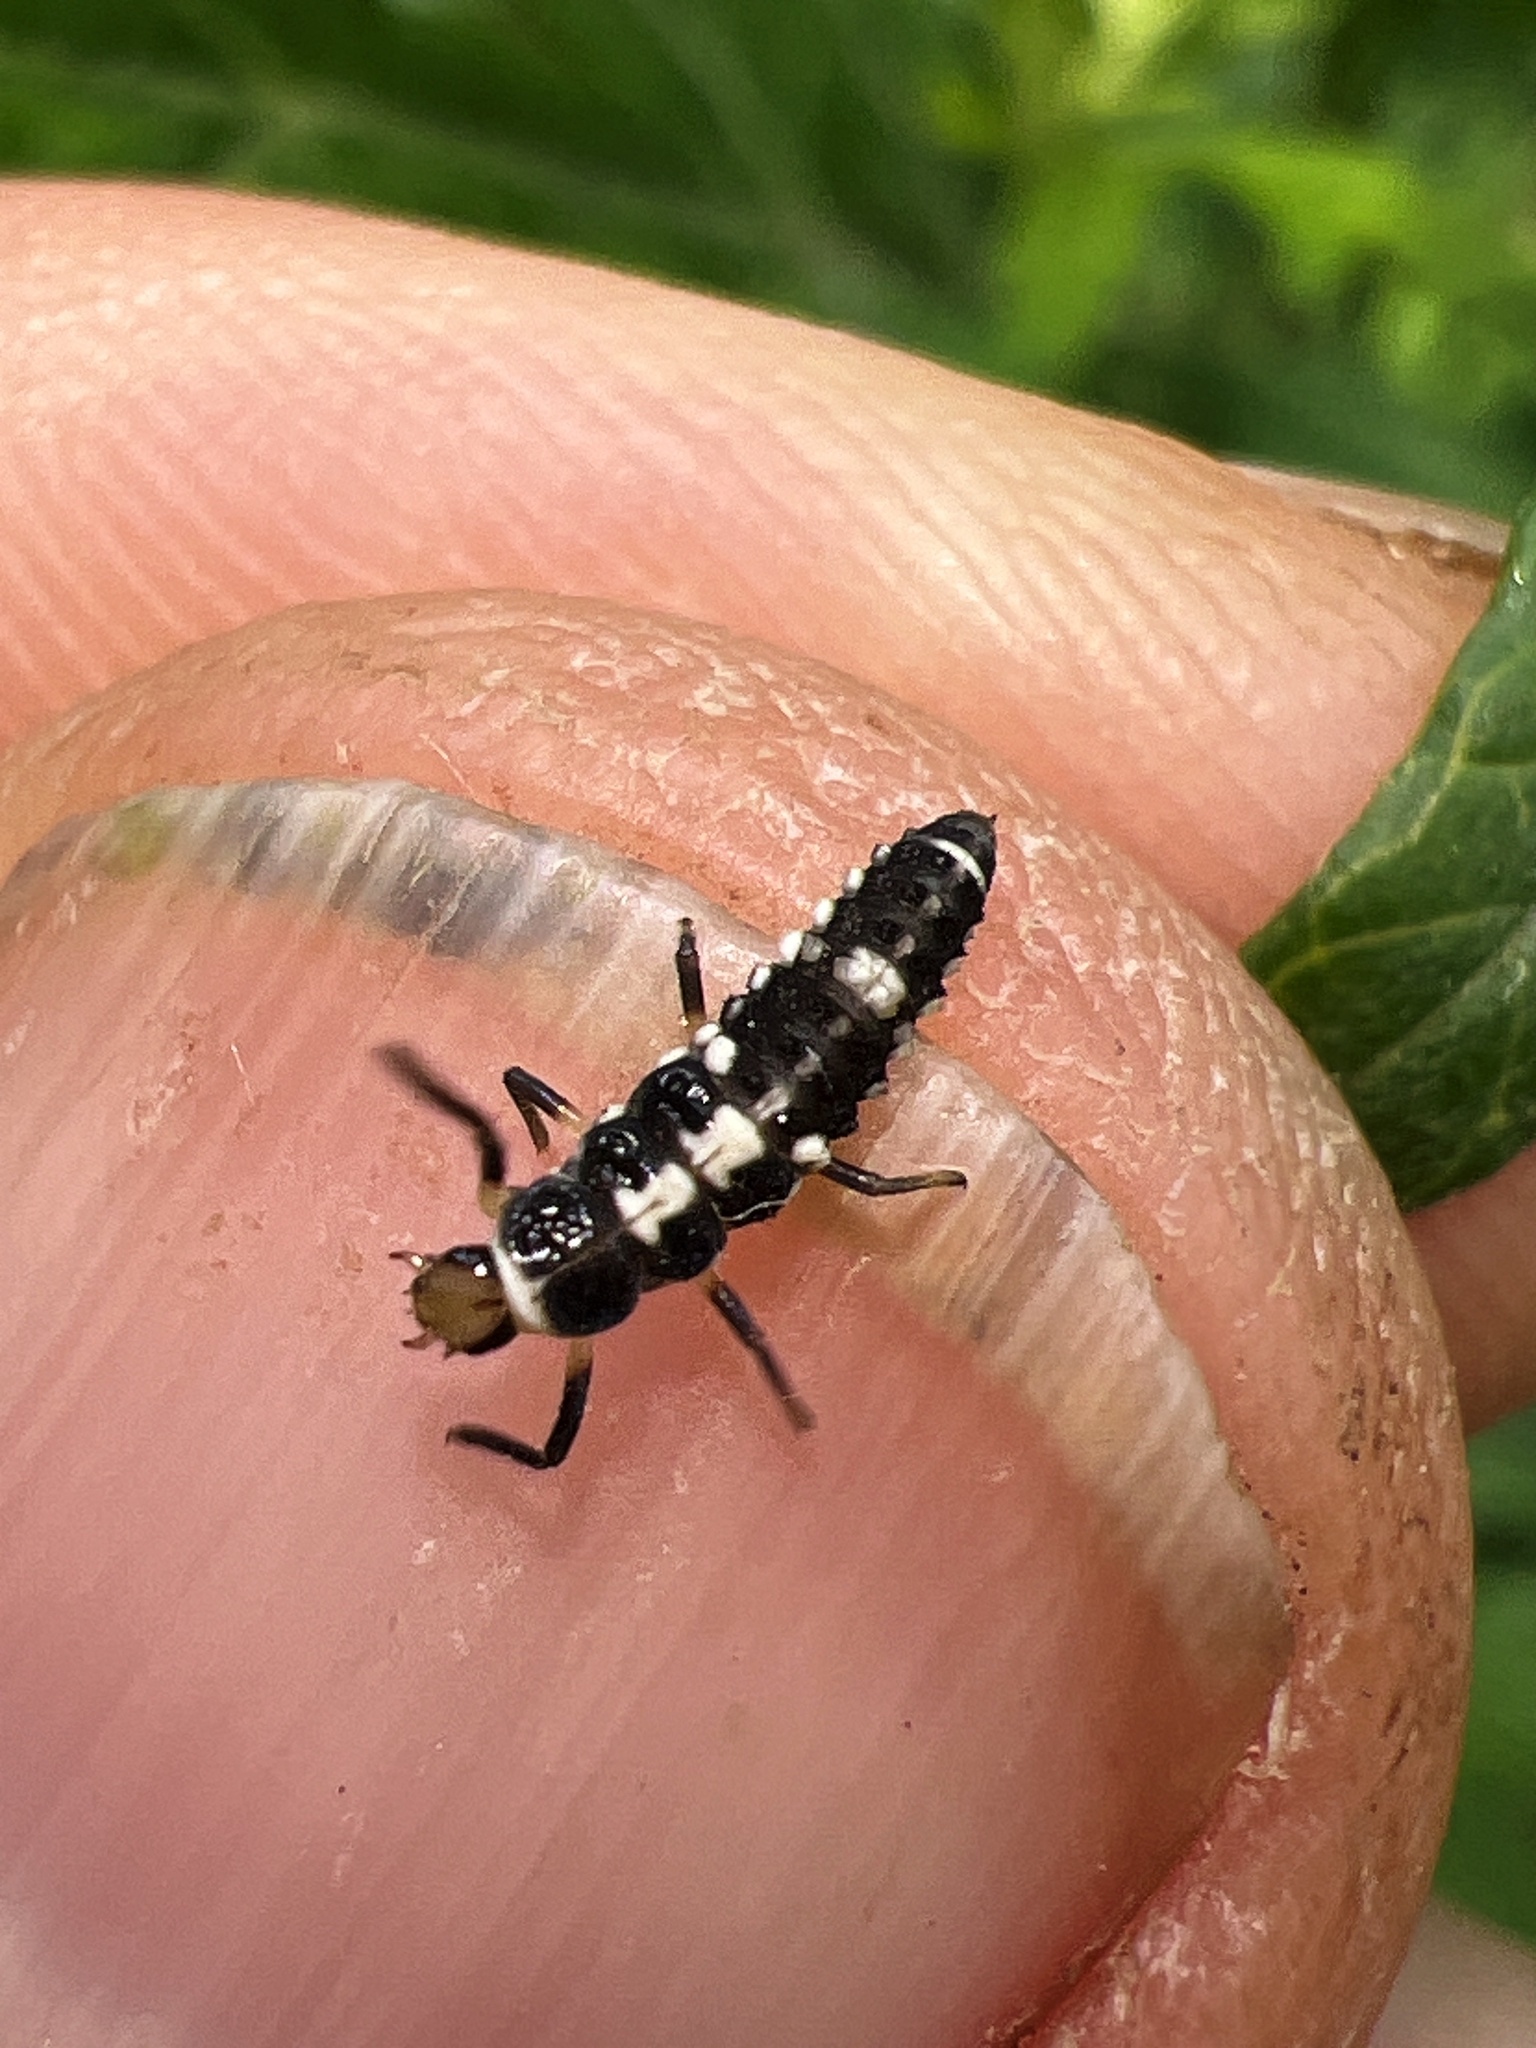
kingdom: Animalia
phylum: Arthropoda
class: Insecta
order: Coleoptera
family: Coccinellidae
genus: Propylaea
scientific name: Propylaea quatuordecimpunctata
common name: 14-spotted ladybird beetle
